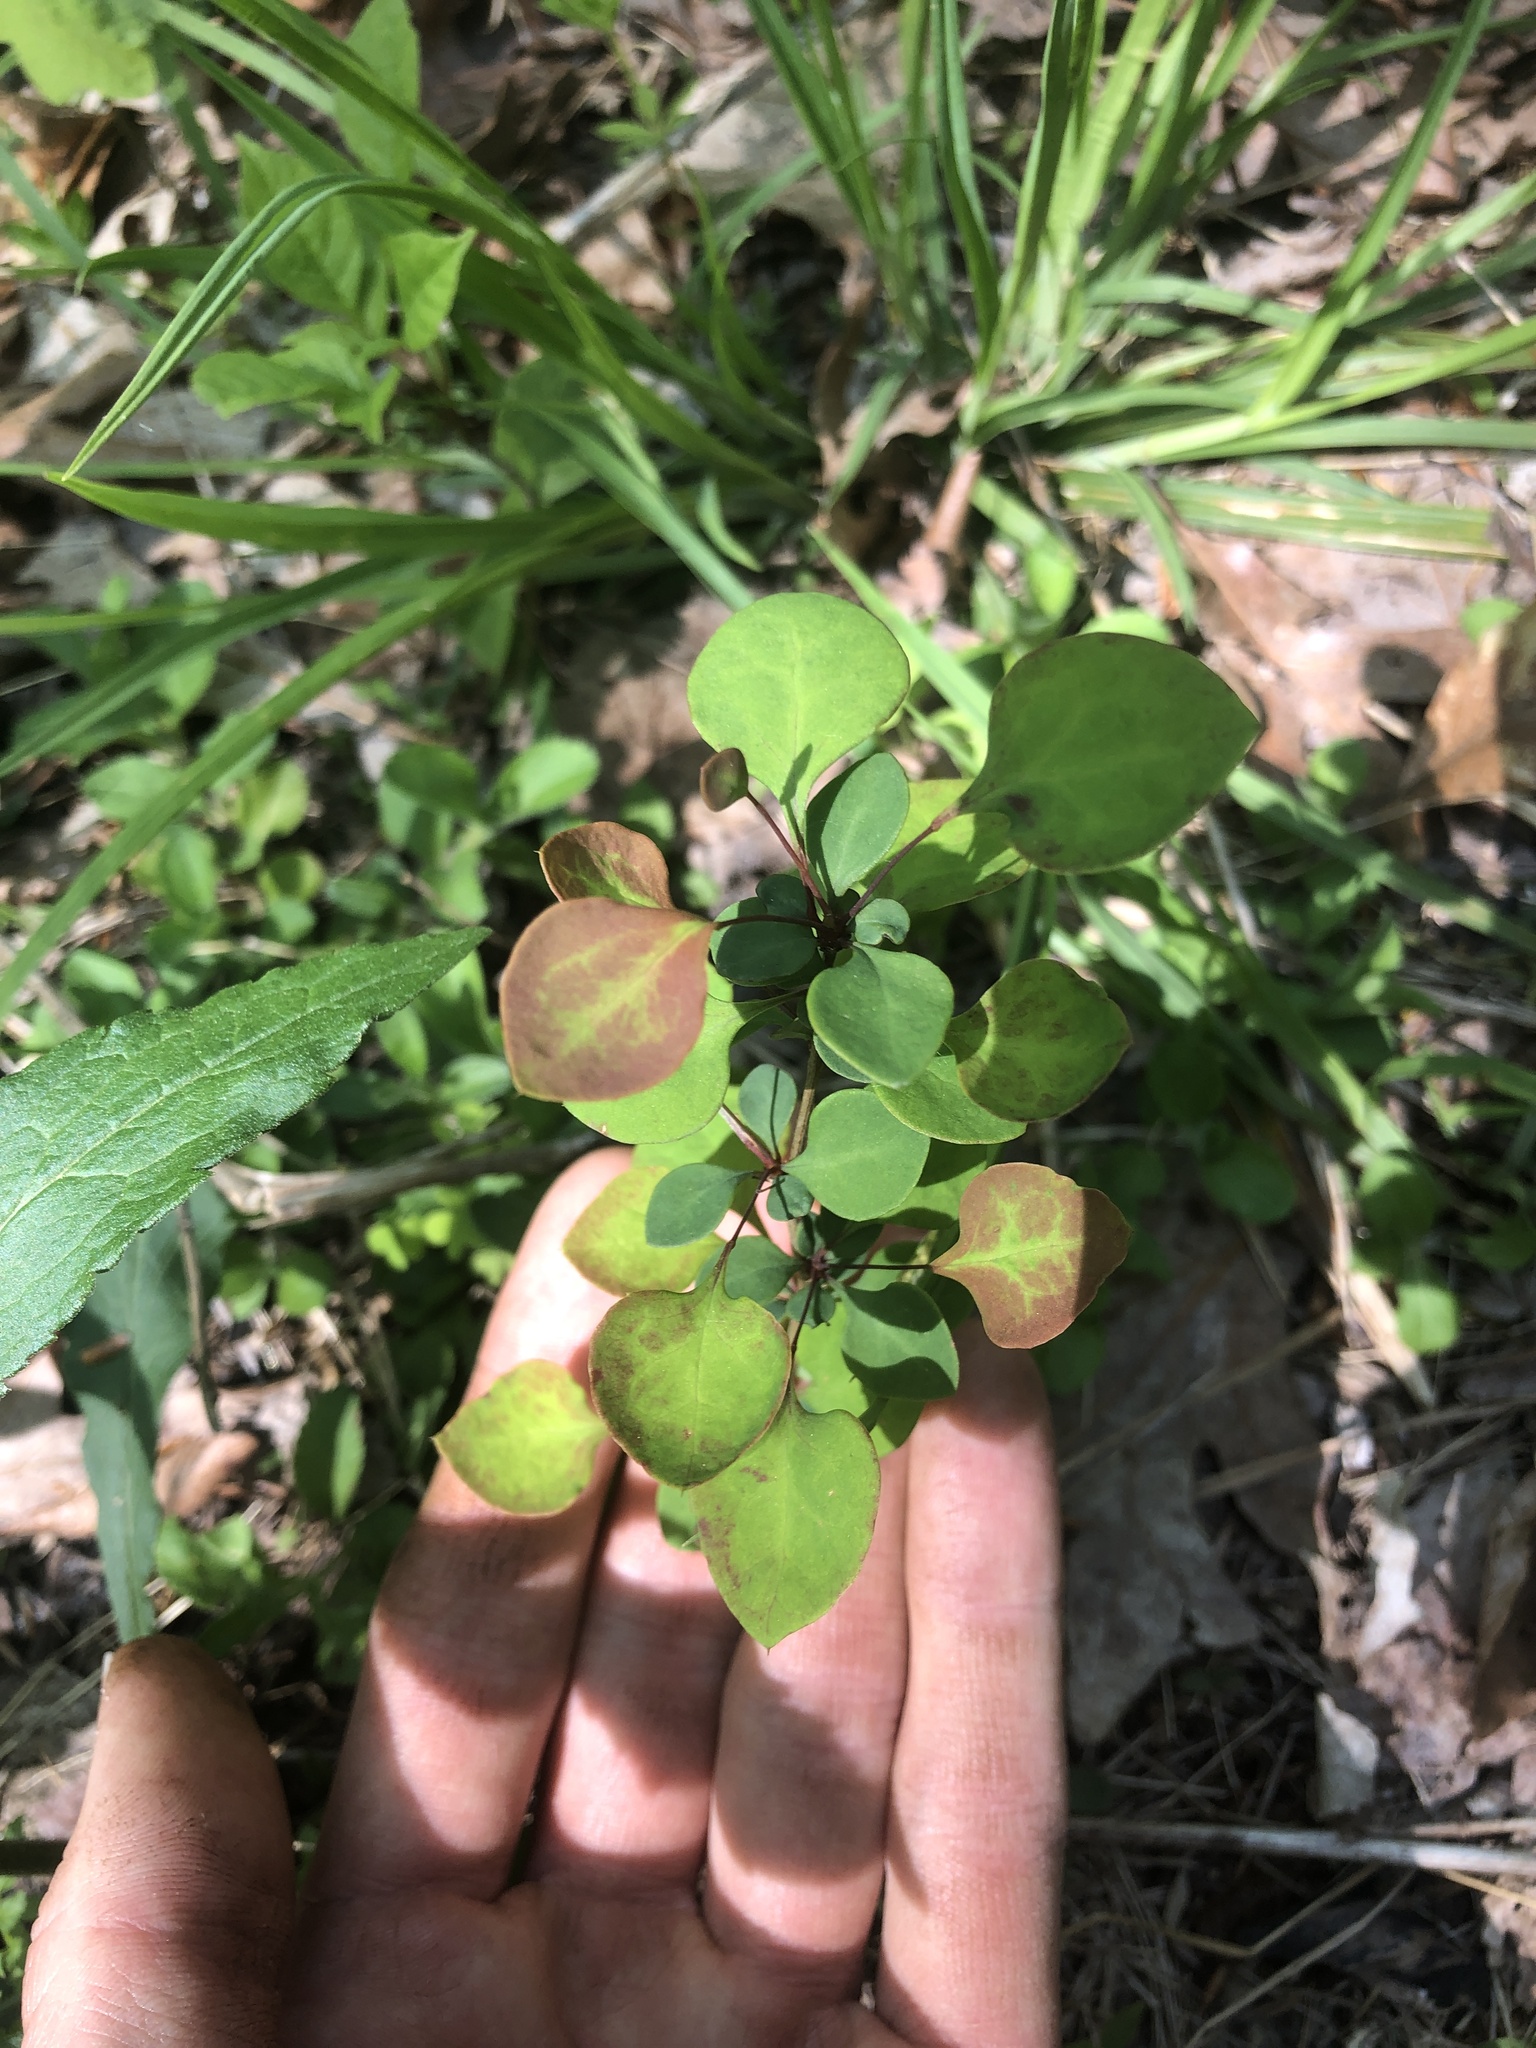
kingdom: Plantae
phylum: Tracheophyta
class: Magnoliopsida
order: Ranunculales
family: Berberidaceae
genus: Berberis
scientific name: Berberis thunbergii
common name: Japanese barberry
